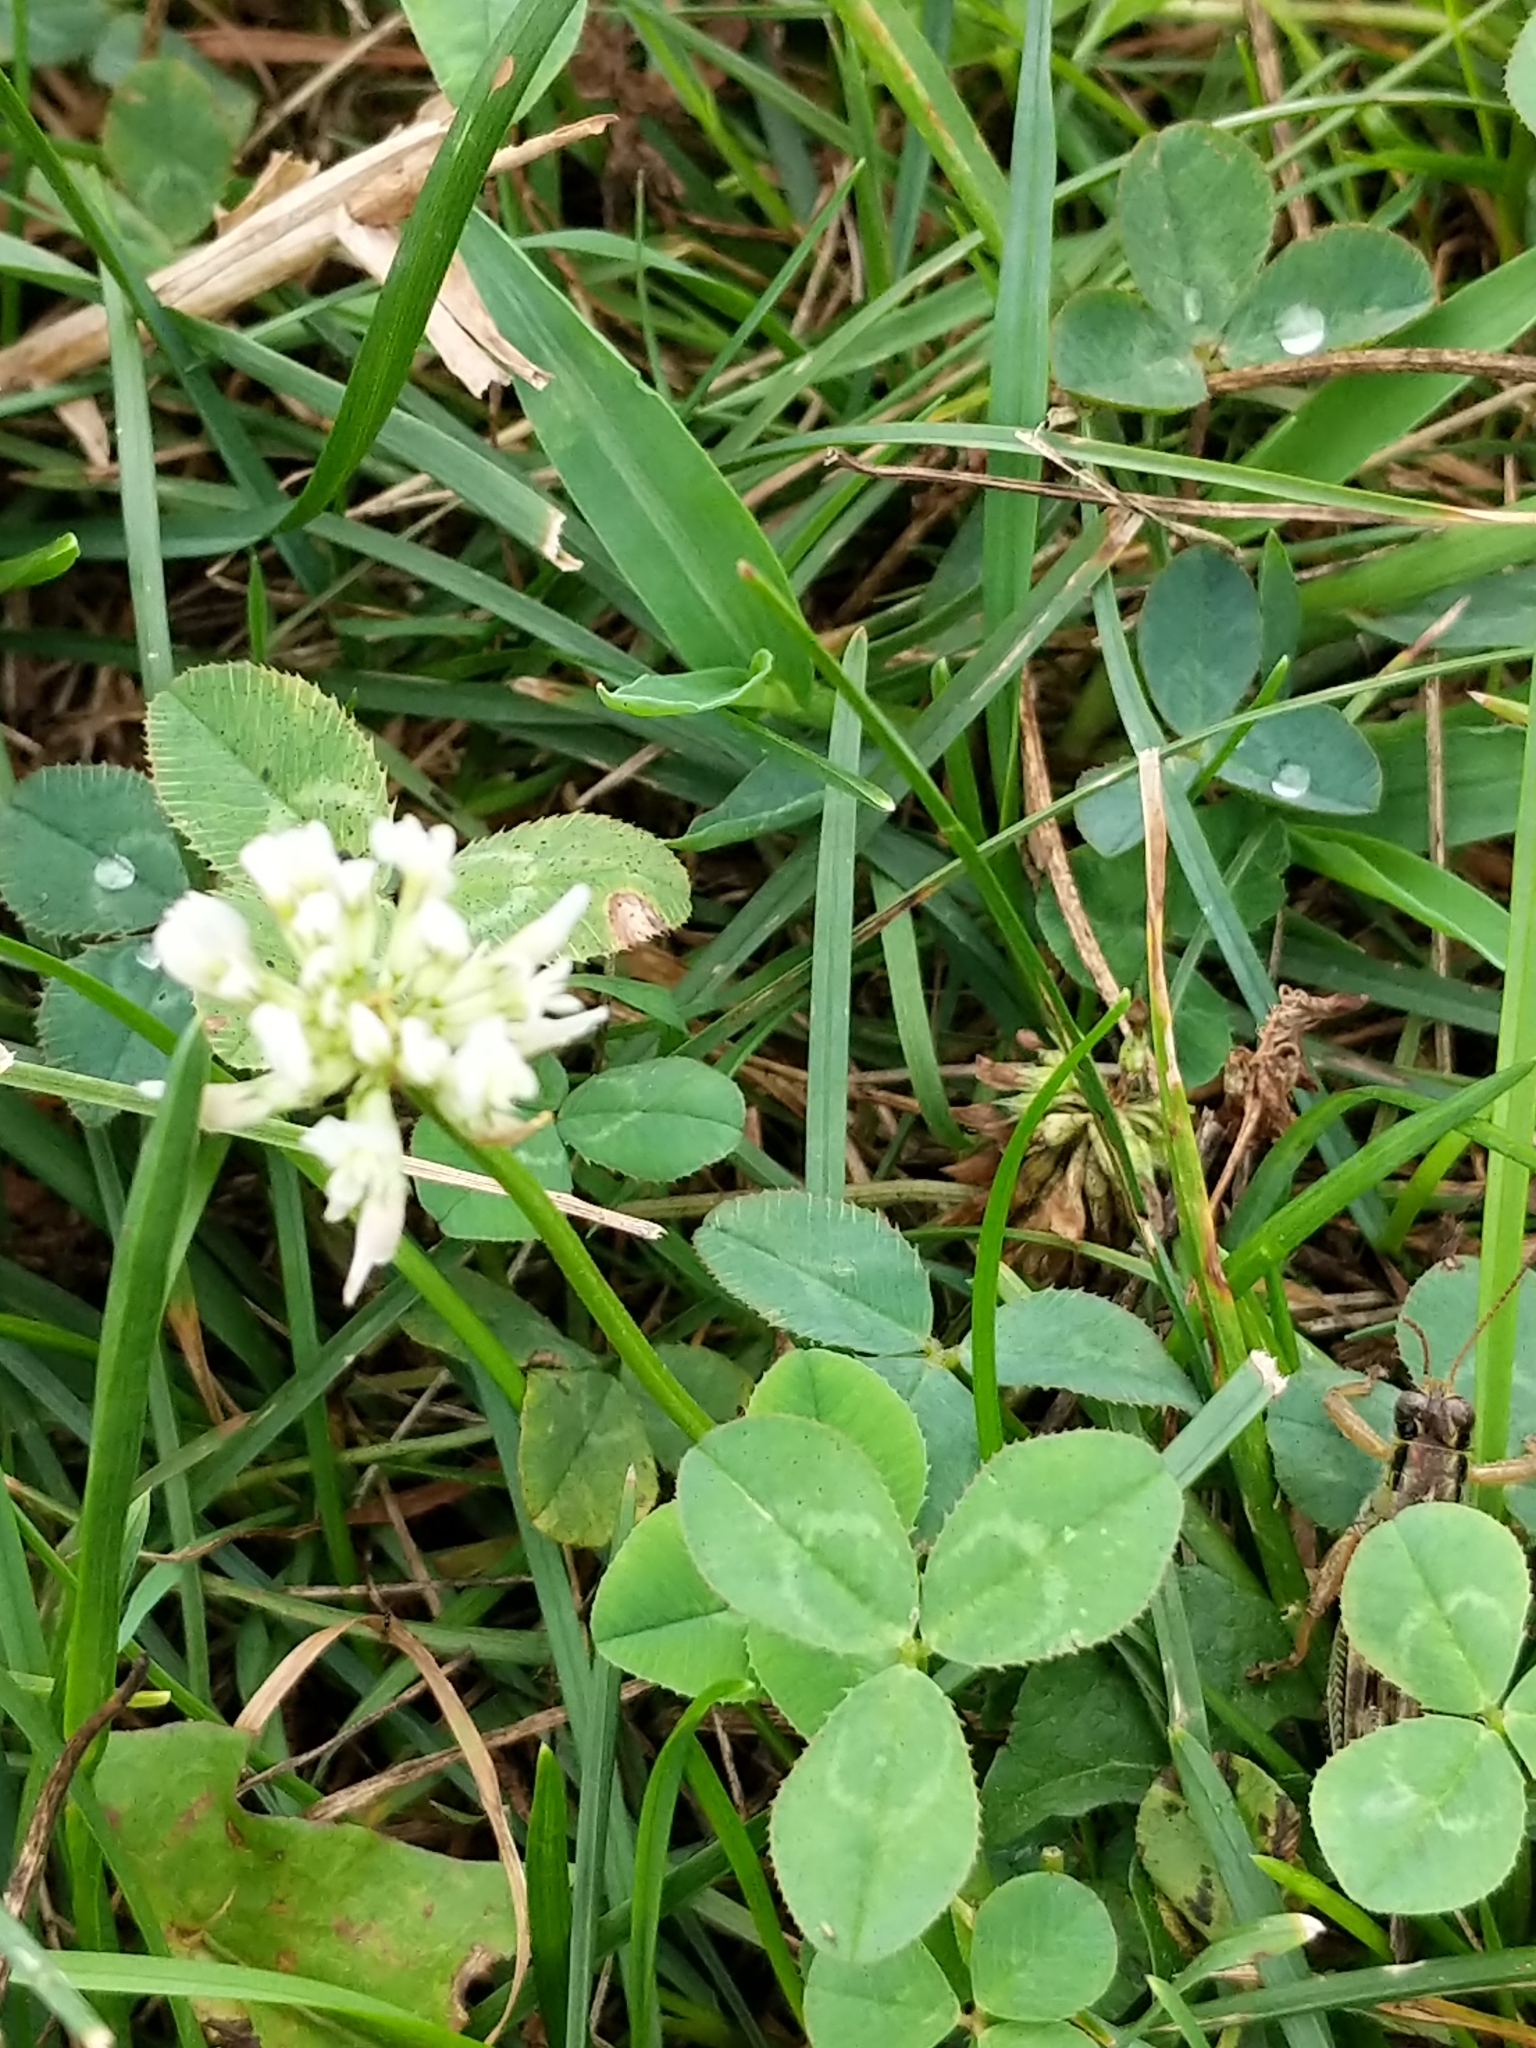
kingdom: Plantae
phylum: Tracheophyta
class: Magnoliopsida
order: Fabales
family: Fabaceae
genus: Trifolium
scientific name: Trifolium repens
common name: White clover
